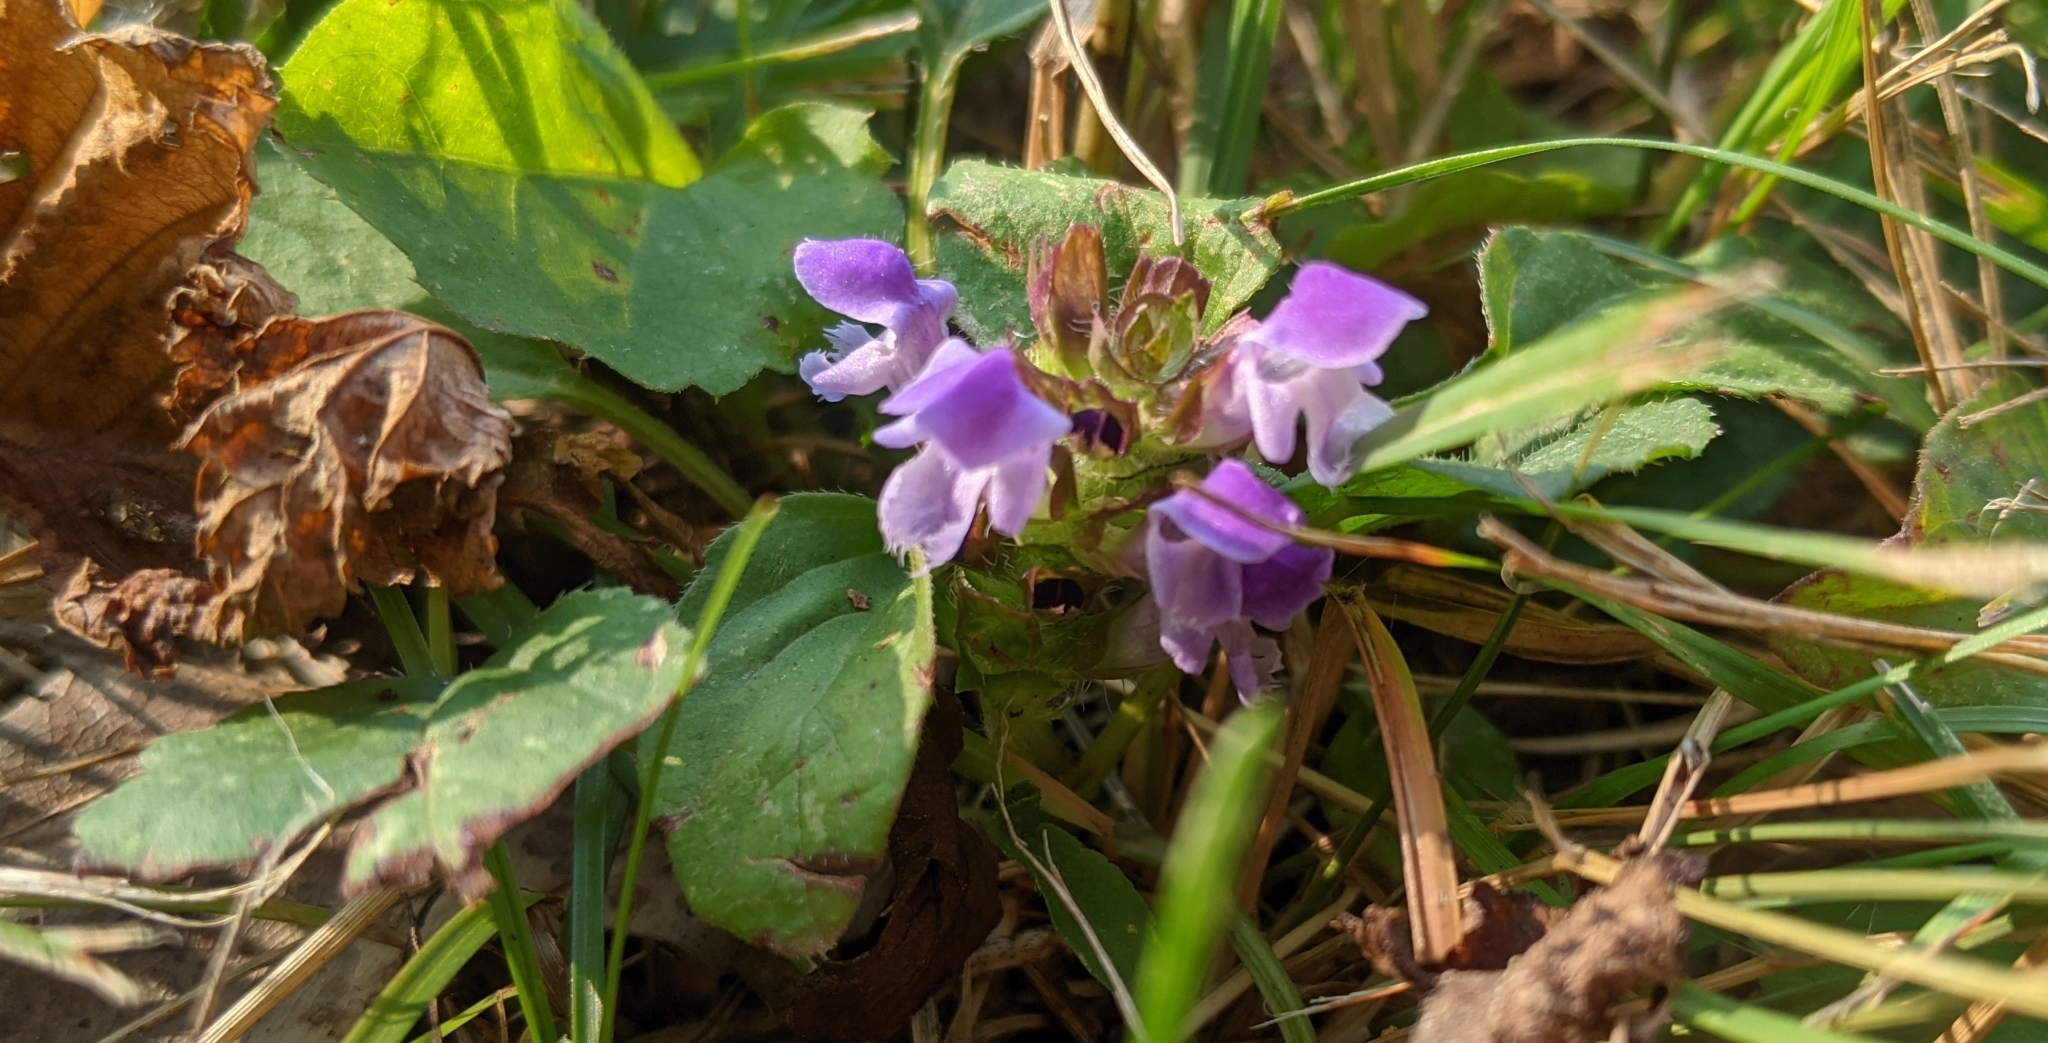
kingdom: Plantae
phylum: Tracheophyta
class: Magnoliopsida
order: Lamiales
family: Lamiaceae
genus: Prunella
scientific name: Prunella vulgaris
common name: Heal-all
